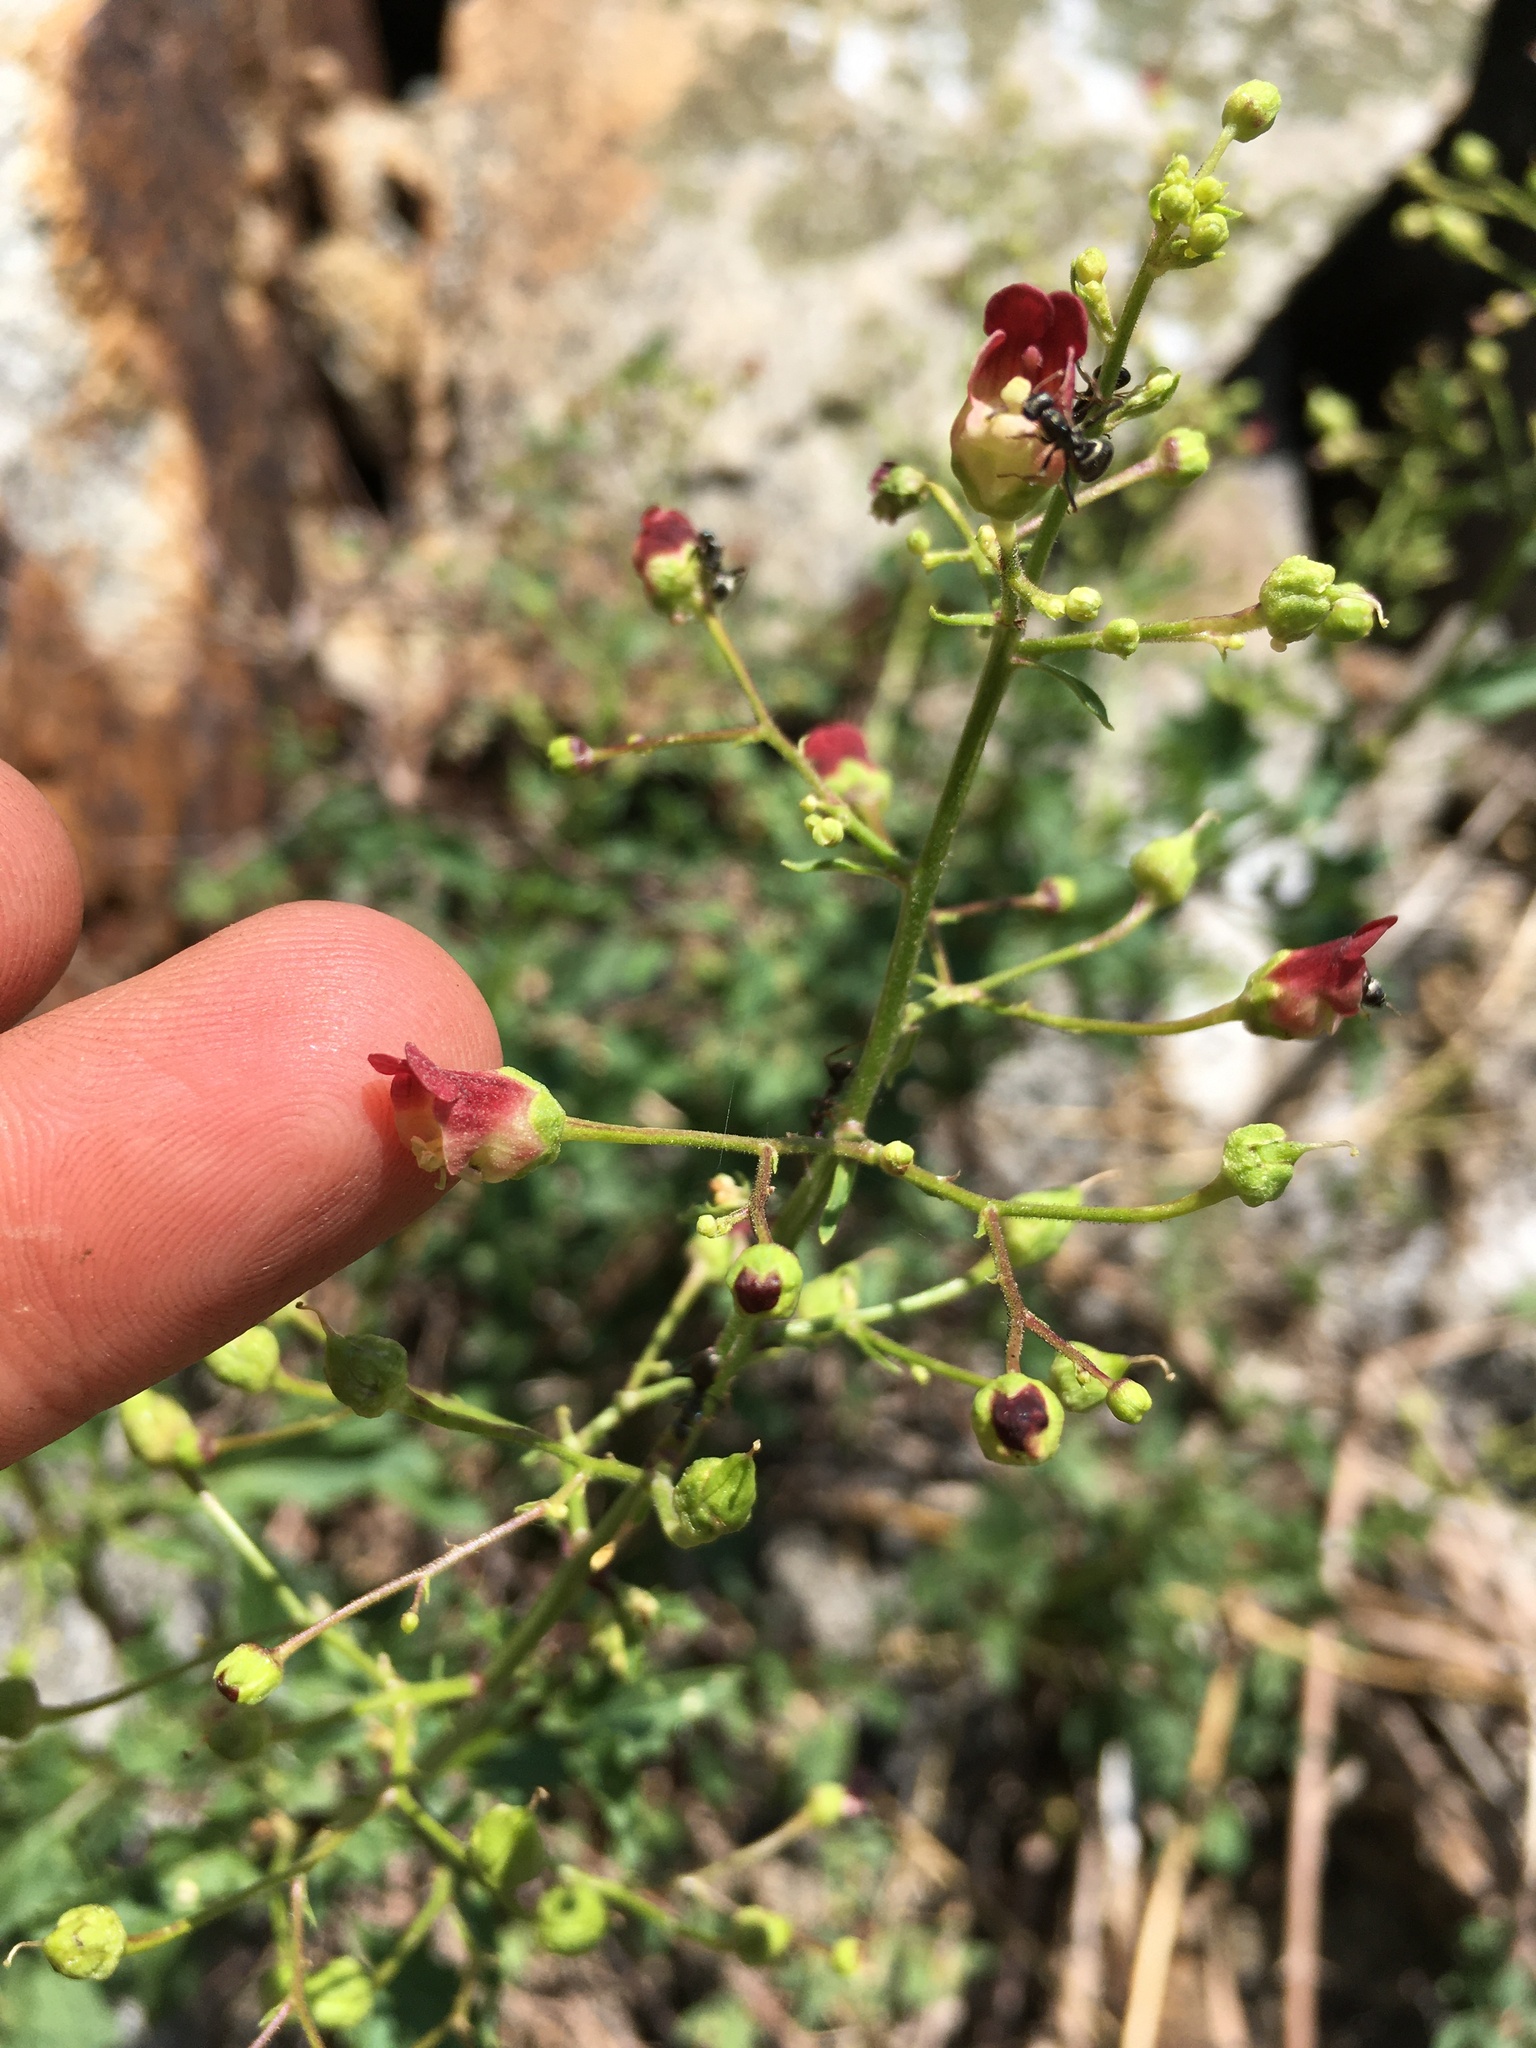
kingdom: Plantae
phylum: Tracheophyta
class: Magnoliopsida
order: Lamiales
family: Scrophulariaceae
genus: Scrophularia
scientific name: Scrophularia desertorum
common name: Desert figwort
